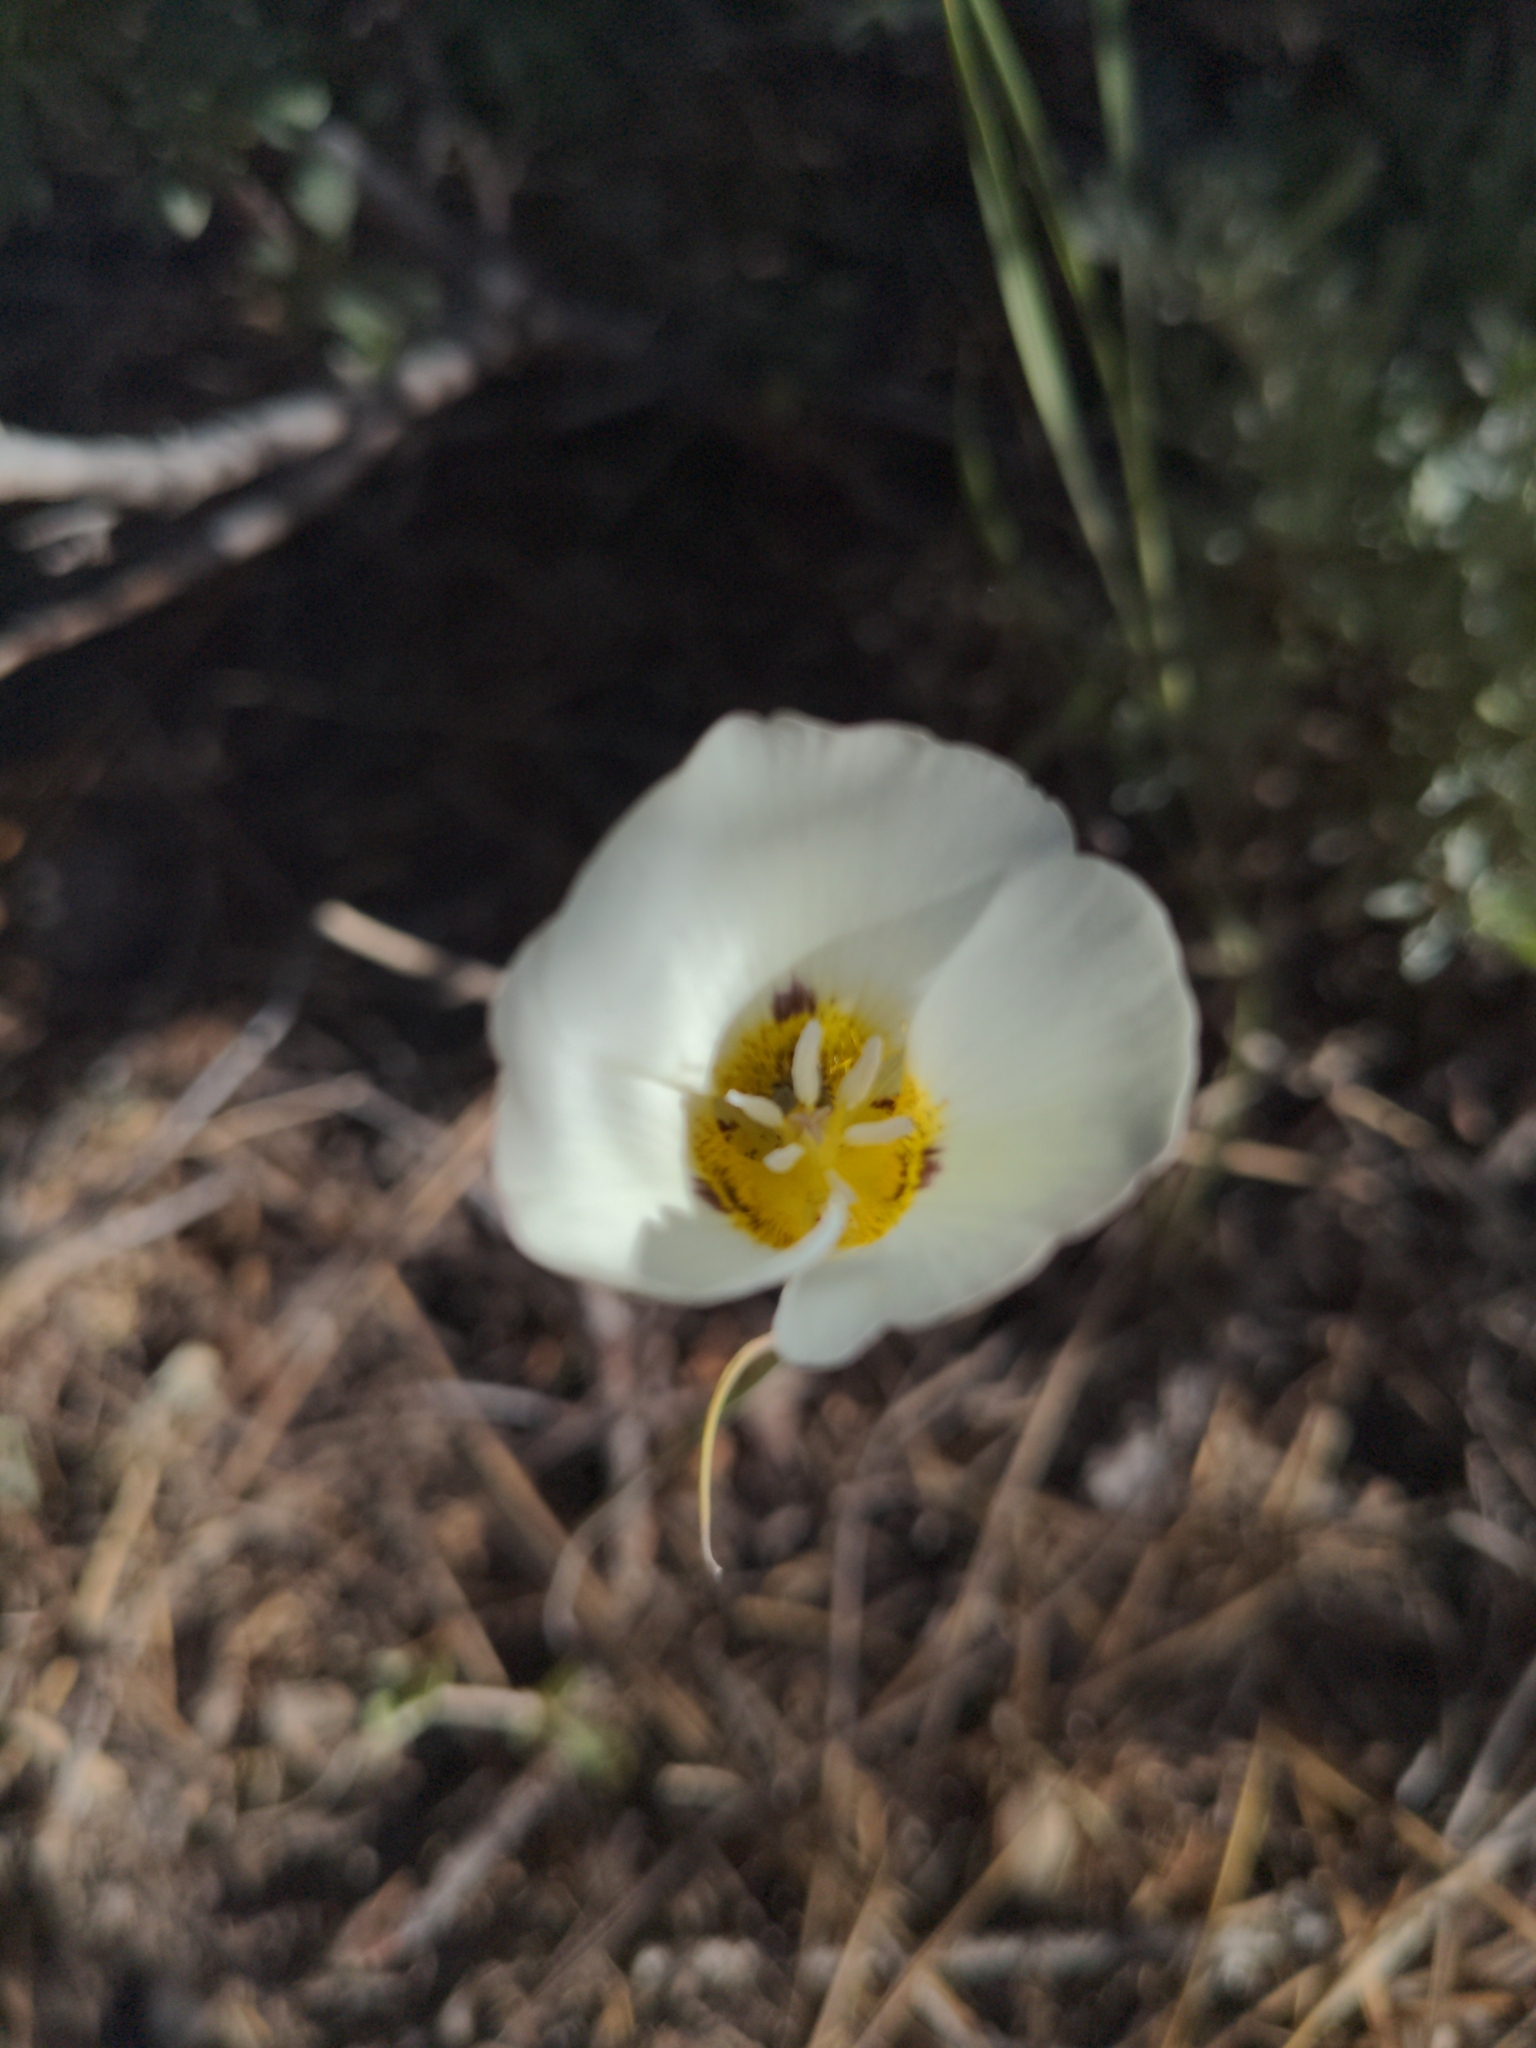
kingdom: Plantae
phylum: Tracheophyta
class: Liliopsida
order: Liliales
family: Liliaceae
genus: Calochortus
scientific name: Calochortus leichtlinii
